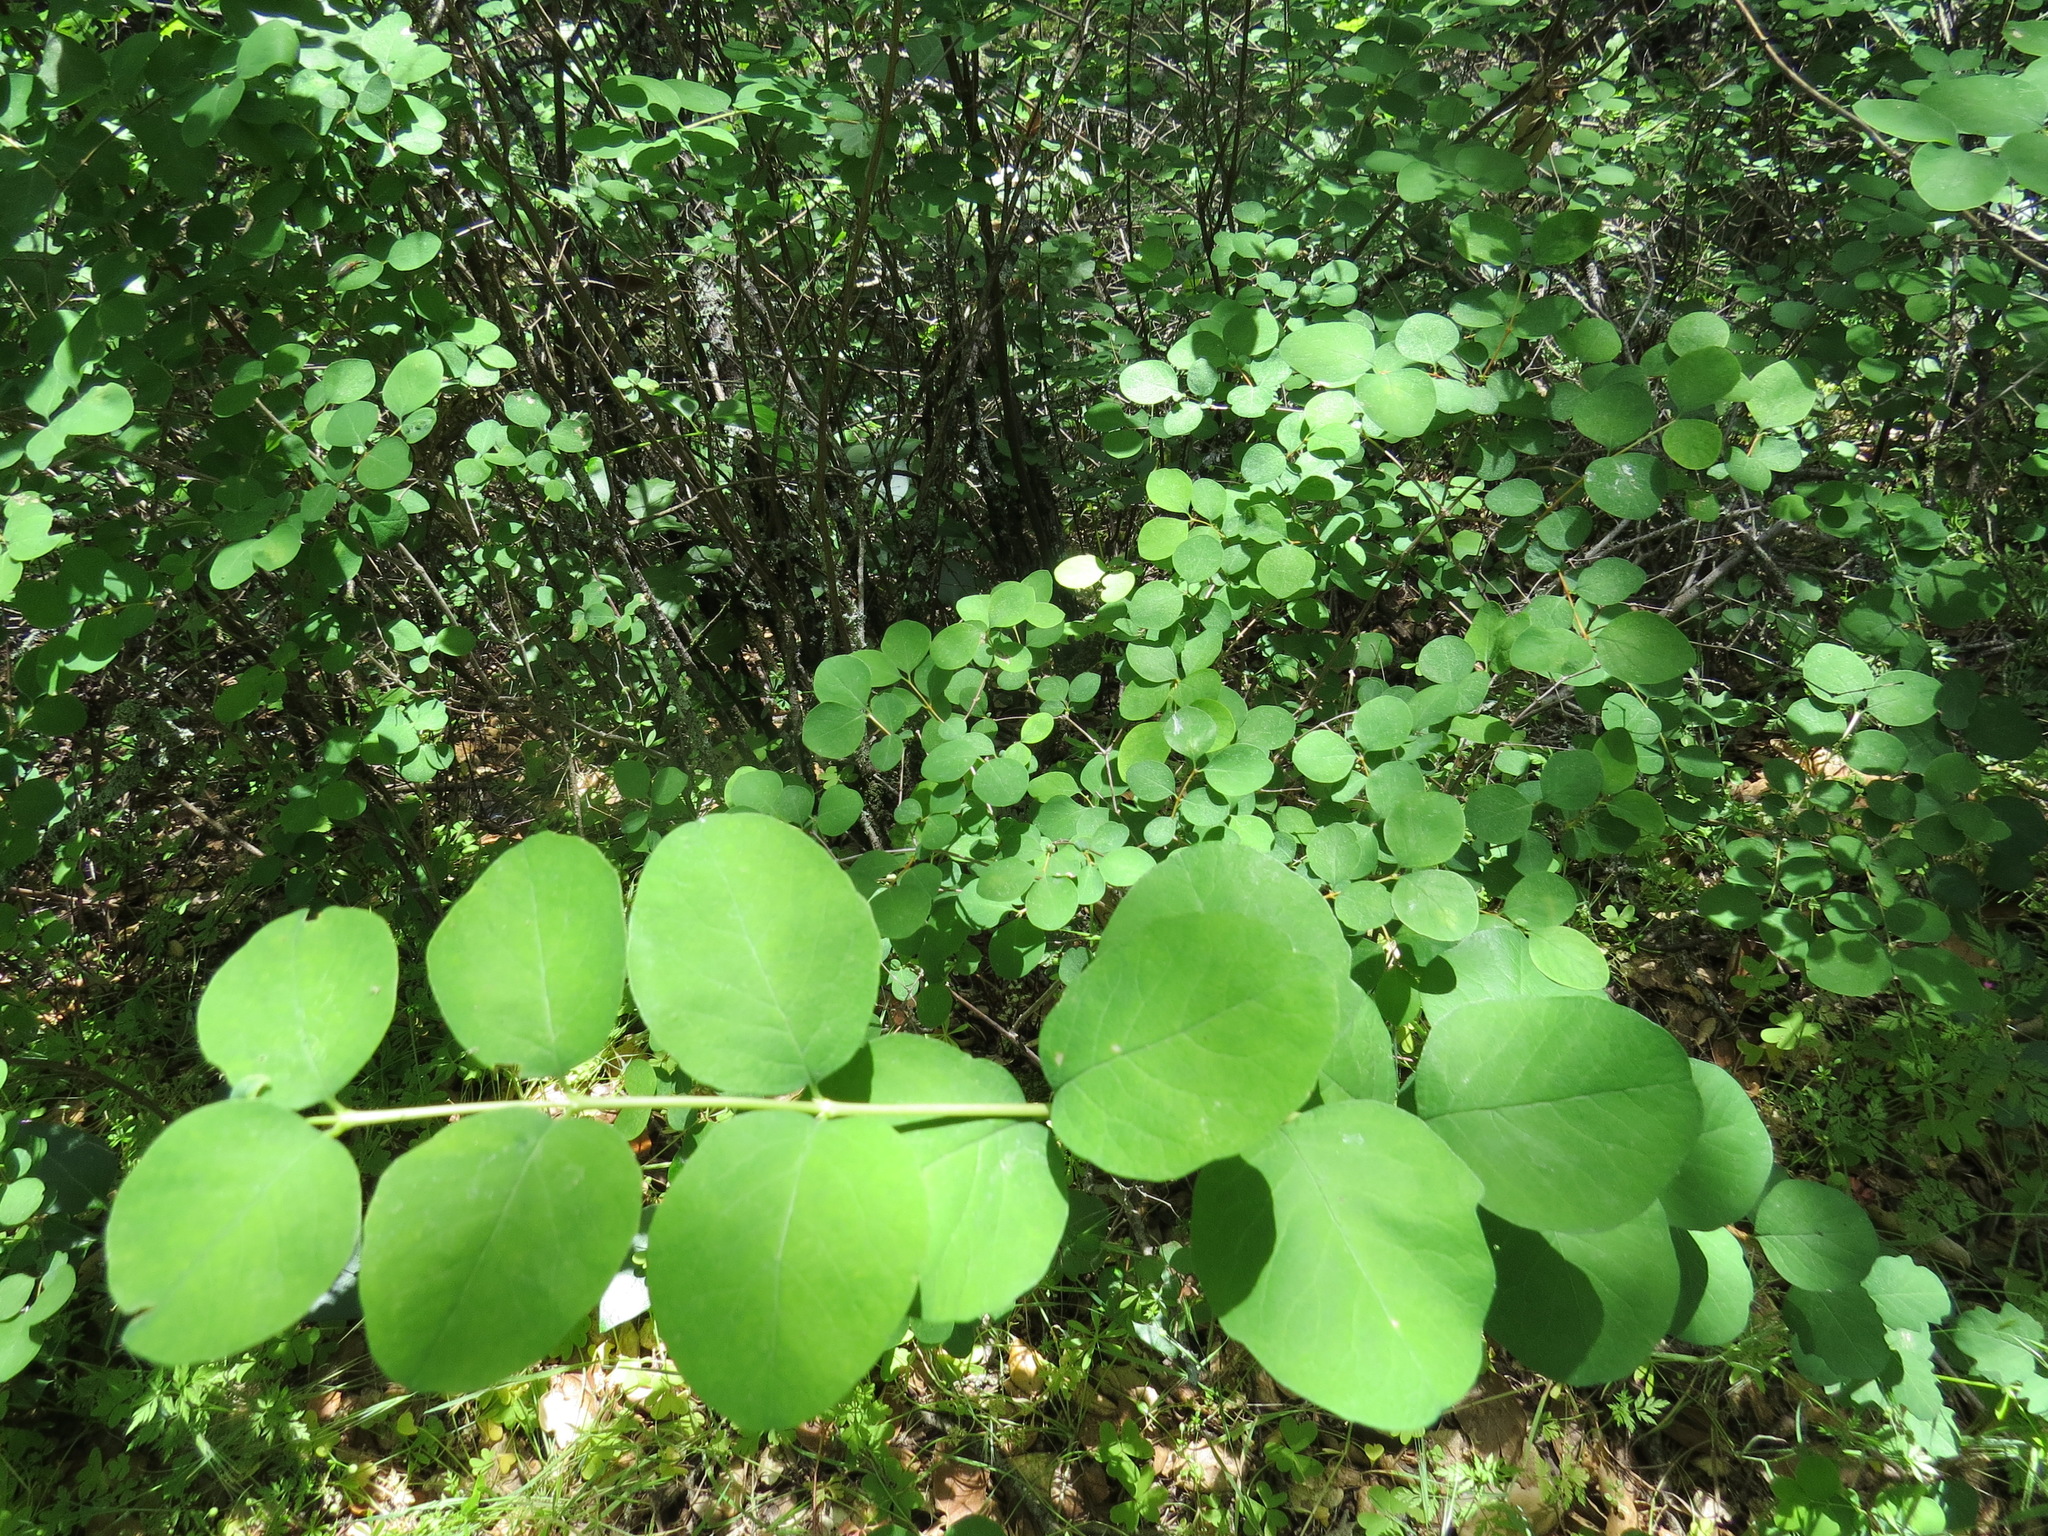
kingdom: Plantae
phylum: Tracheophyta
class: Magnoliopsida
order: Dipsacales
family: Caprifoliaceae
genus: Symphoricarpos
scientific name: Symphoricarpos albus
